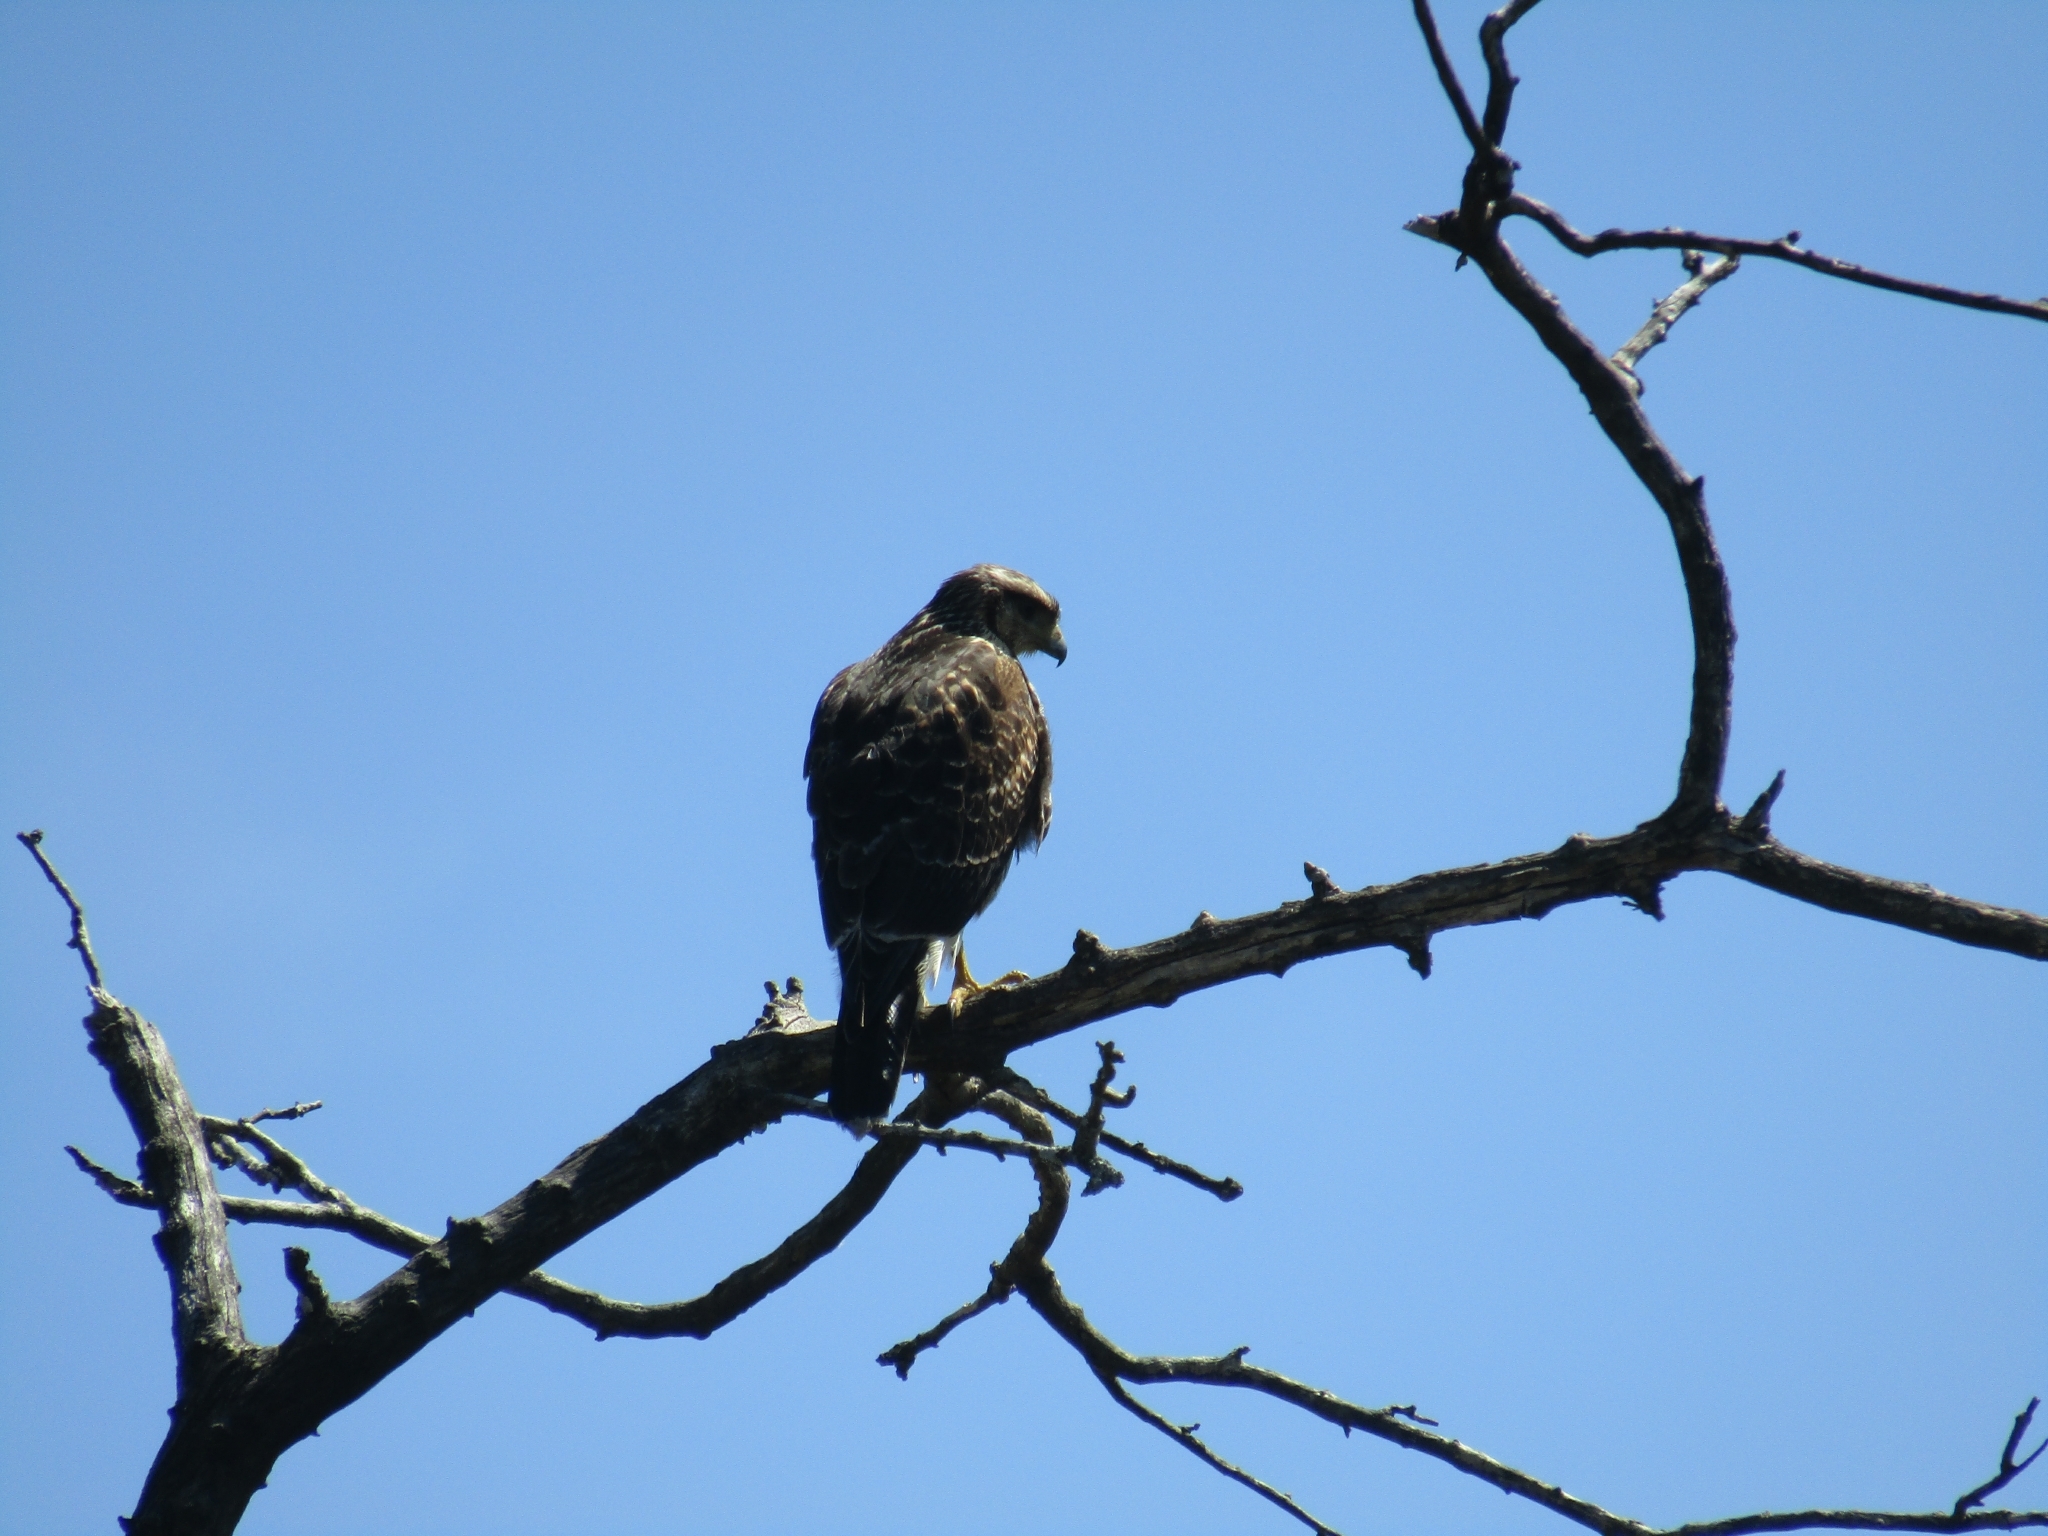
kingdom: Animalia
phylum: Chordata
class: Aves
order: Accipitriformes
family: Accipitridae
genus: Parabuteo
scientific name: Parabuteo unicinctus
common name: Harris's hawk
